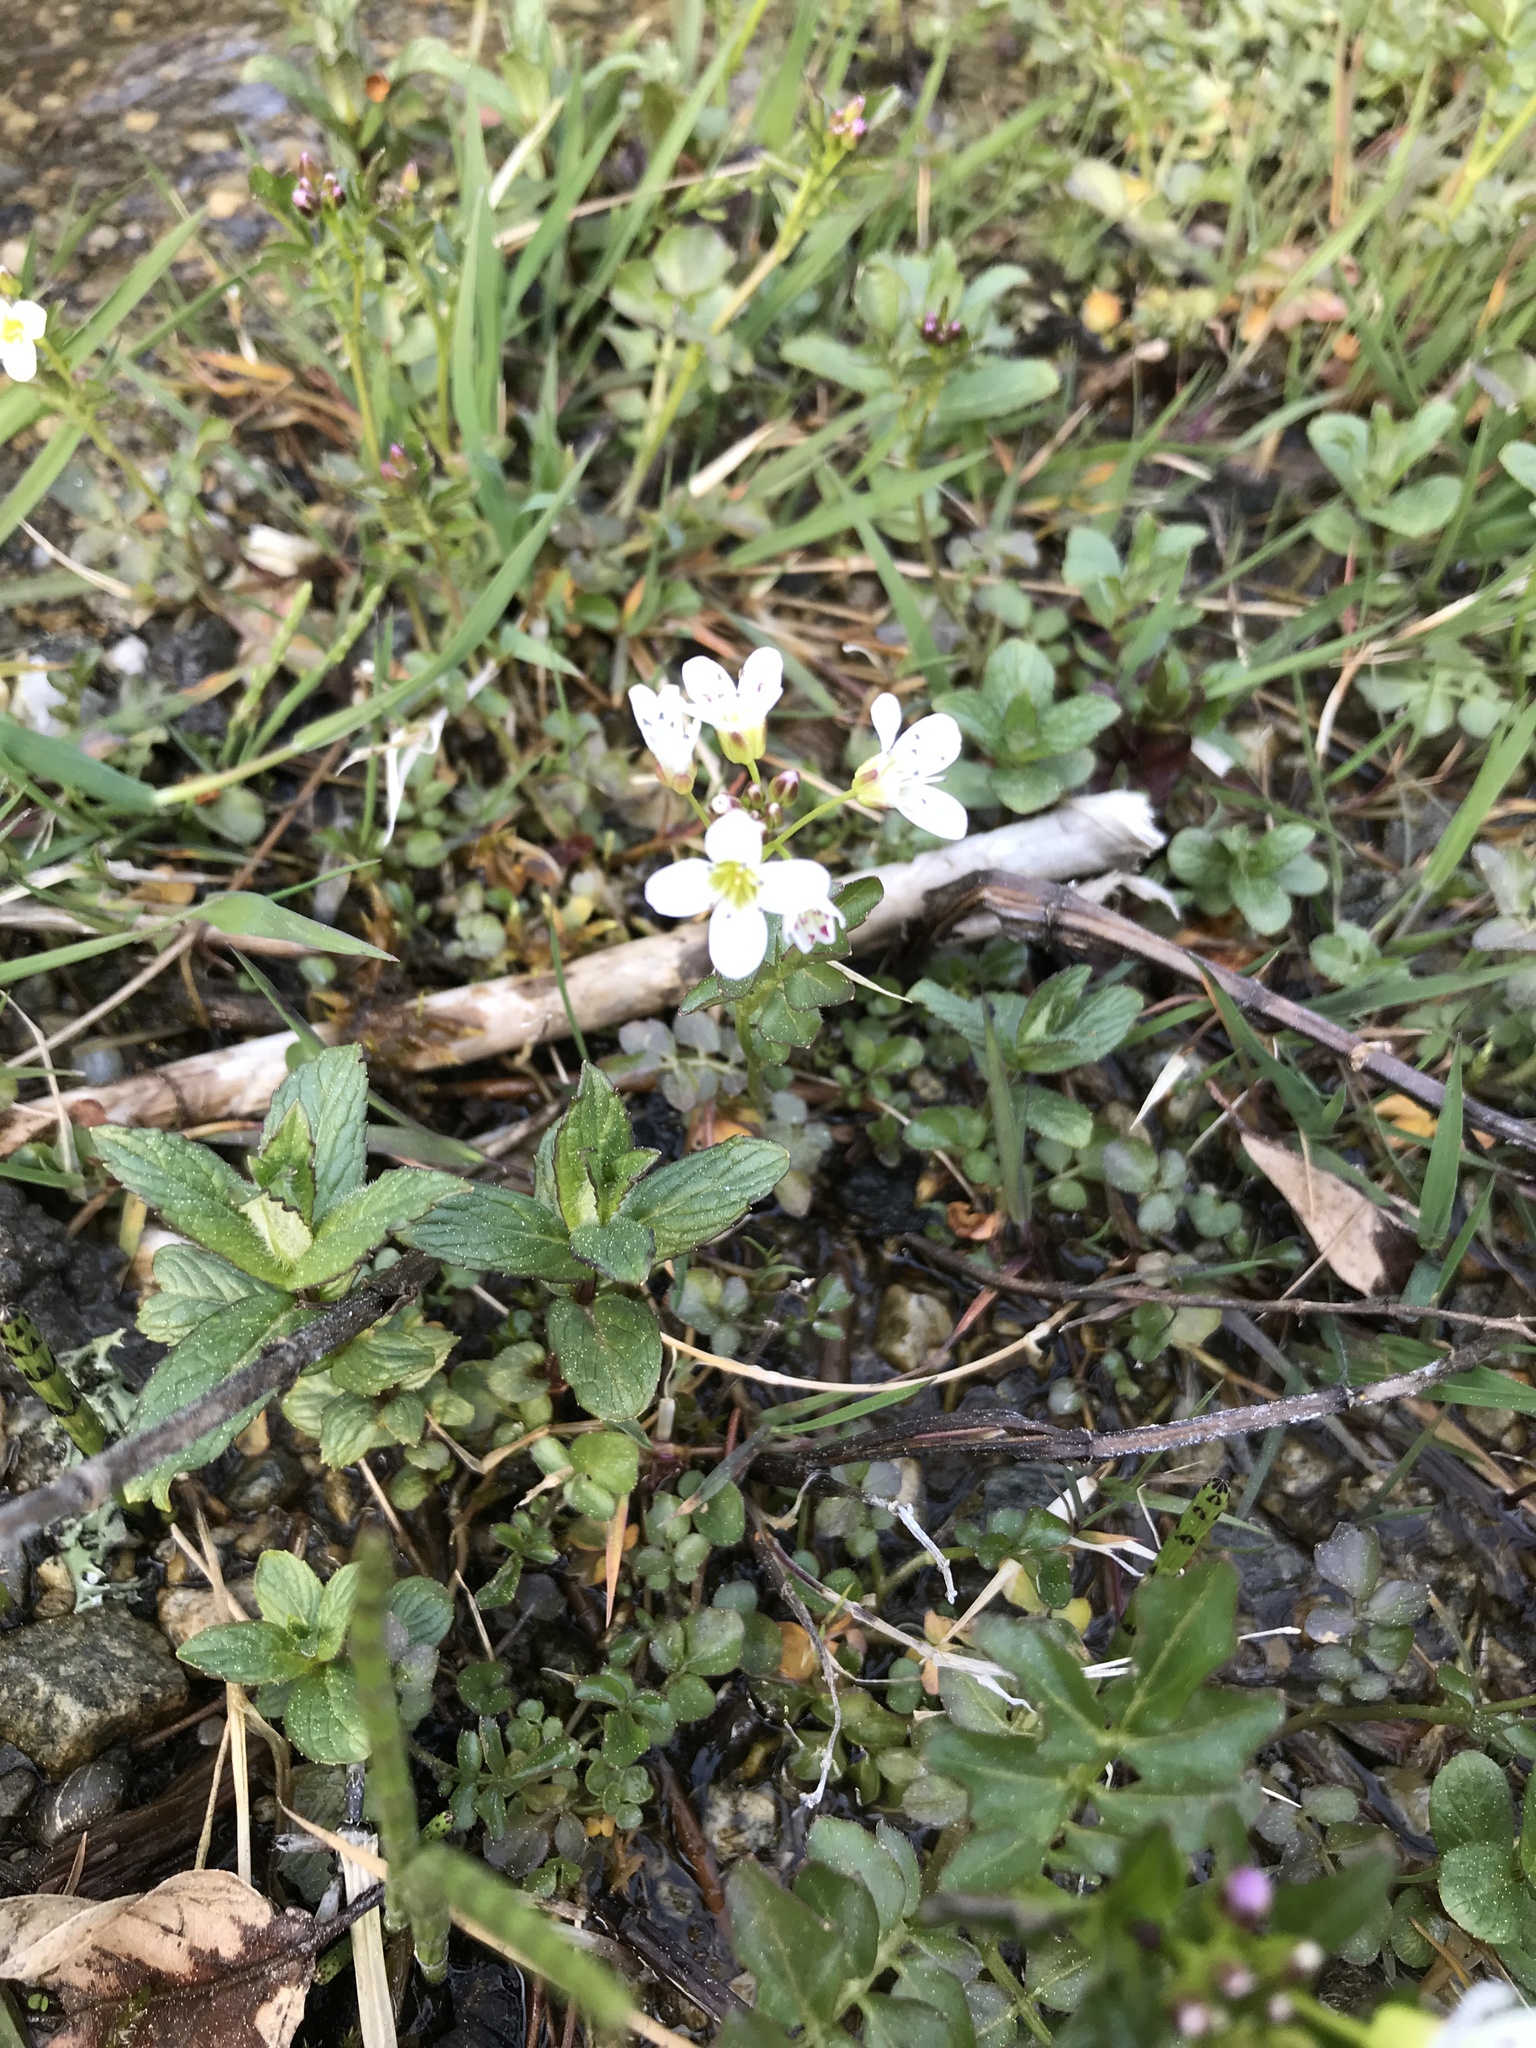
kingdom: Plantae
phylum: Tracheophyta
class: Magnoliopsida
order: Brassicales
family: Brassicaceae
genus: Cardamine
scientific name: Cardamine amara
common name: Large bitter-cress
